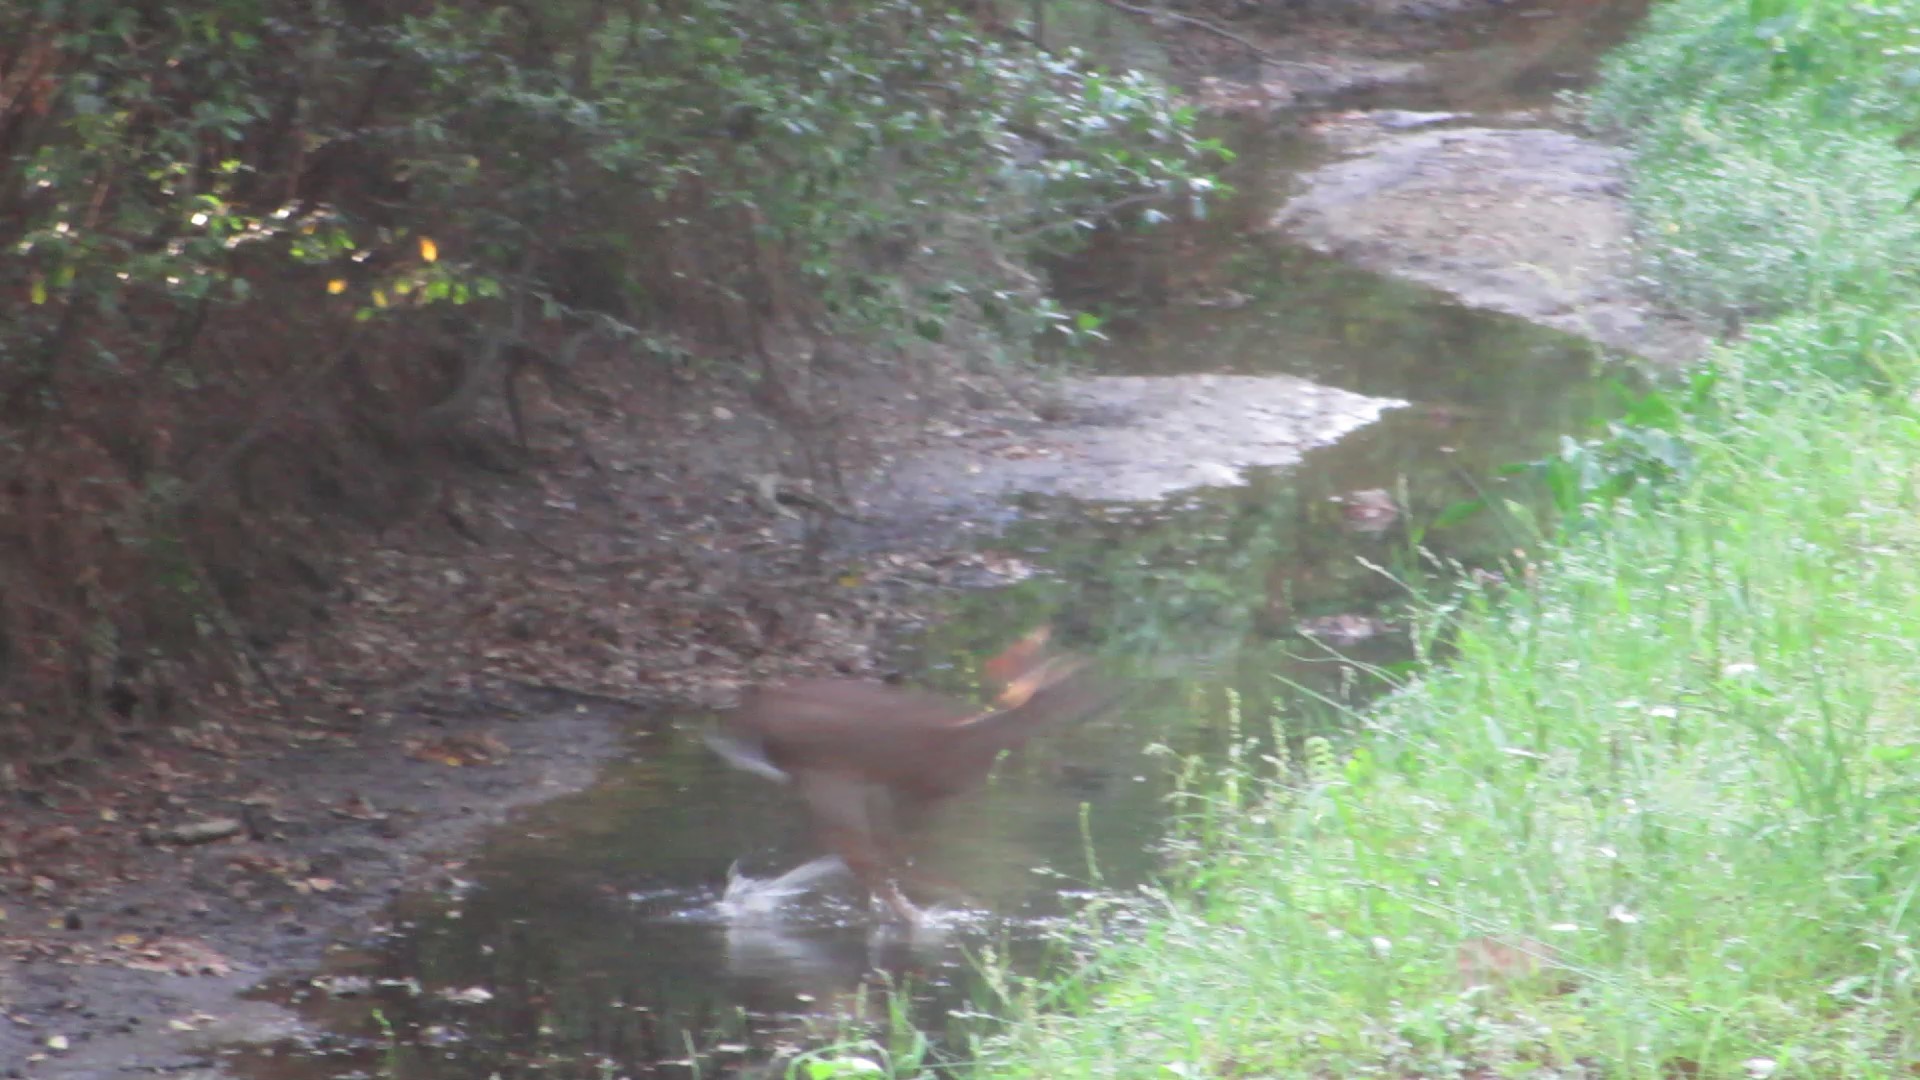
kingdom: Animalia
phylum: Chordata
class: Mammalia
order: Artiodactyla
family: Cervidae
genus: Odocoileus
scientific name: Odocoileus virginianus
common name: White-tailed deer
